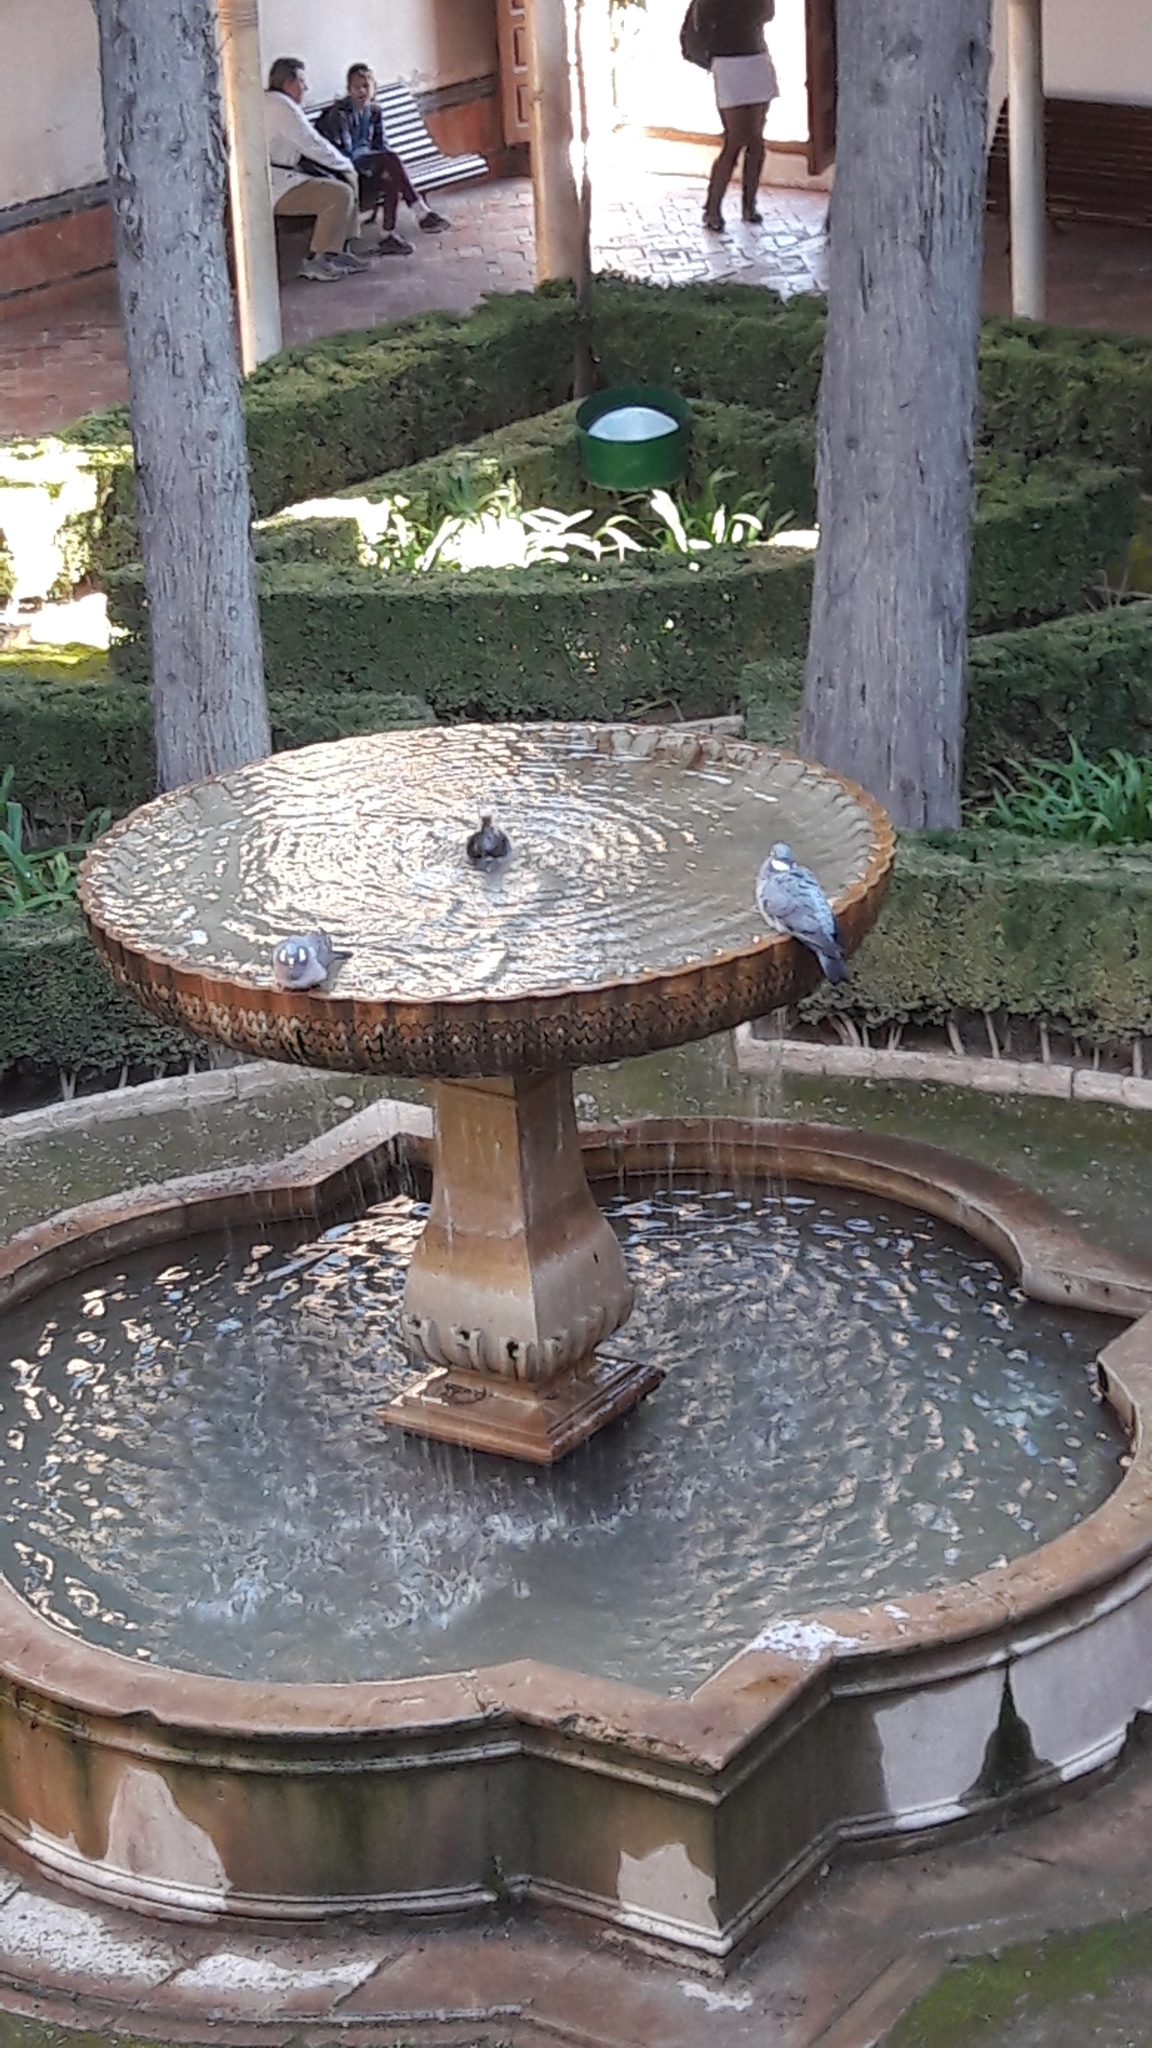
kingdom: Animalia
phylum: Chordata
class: Aves
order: Columbiformes
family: Columbidae
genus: Columba
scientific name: Columba palumbus
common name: Common wood pigeon
